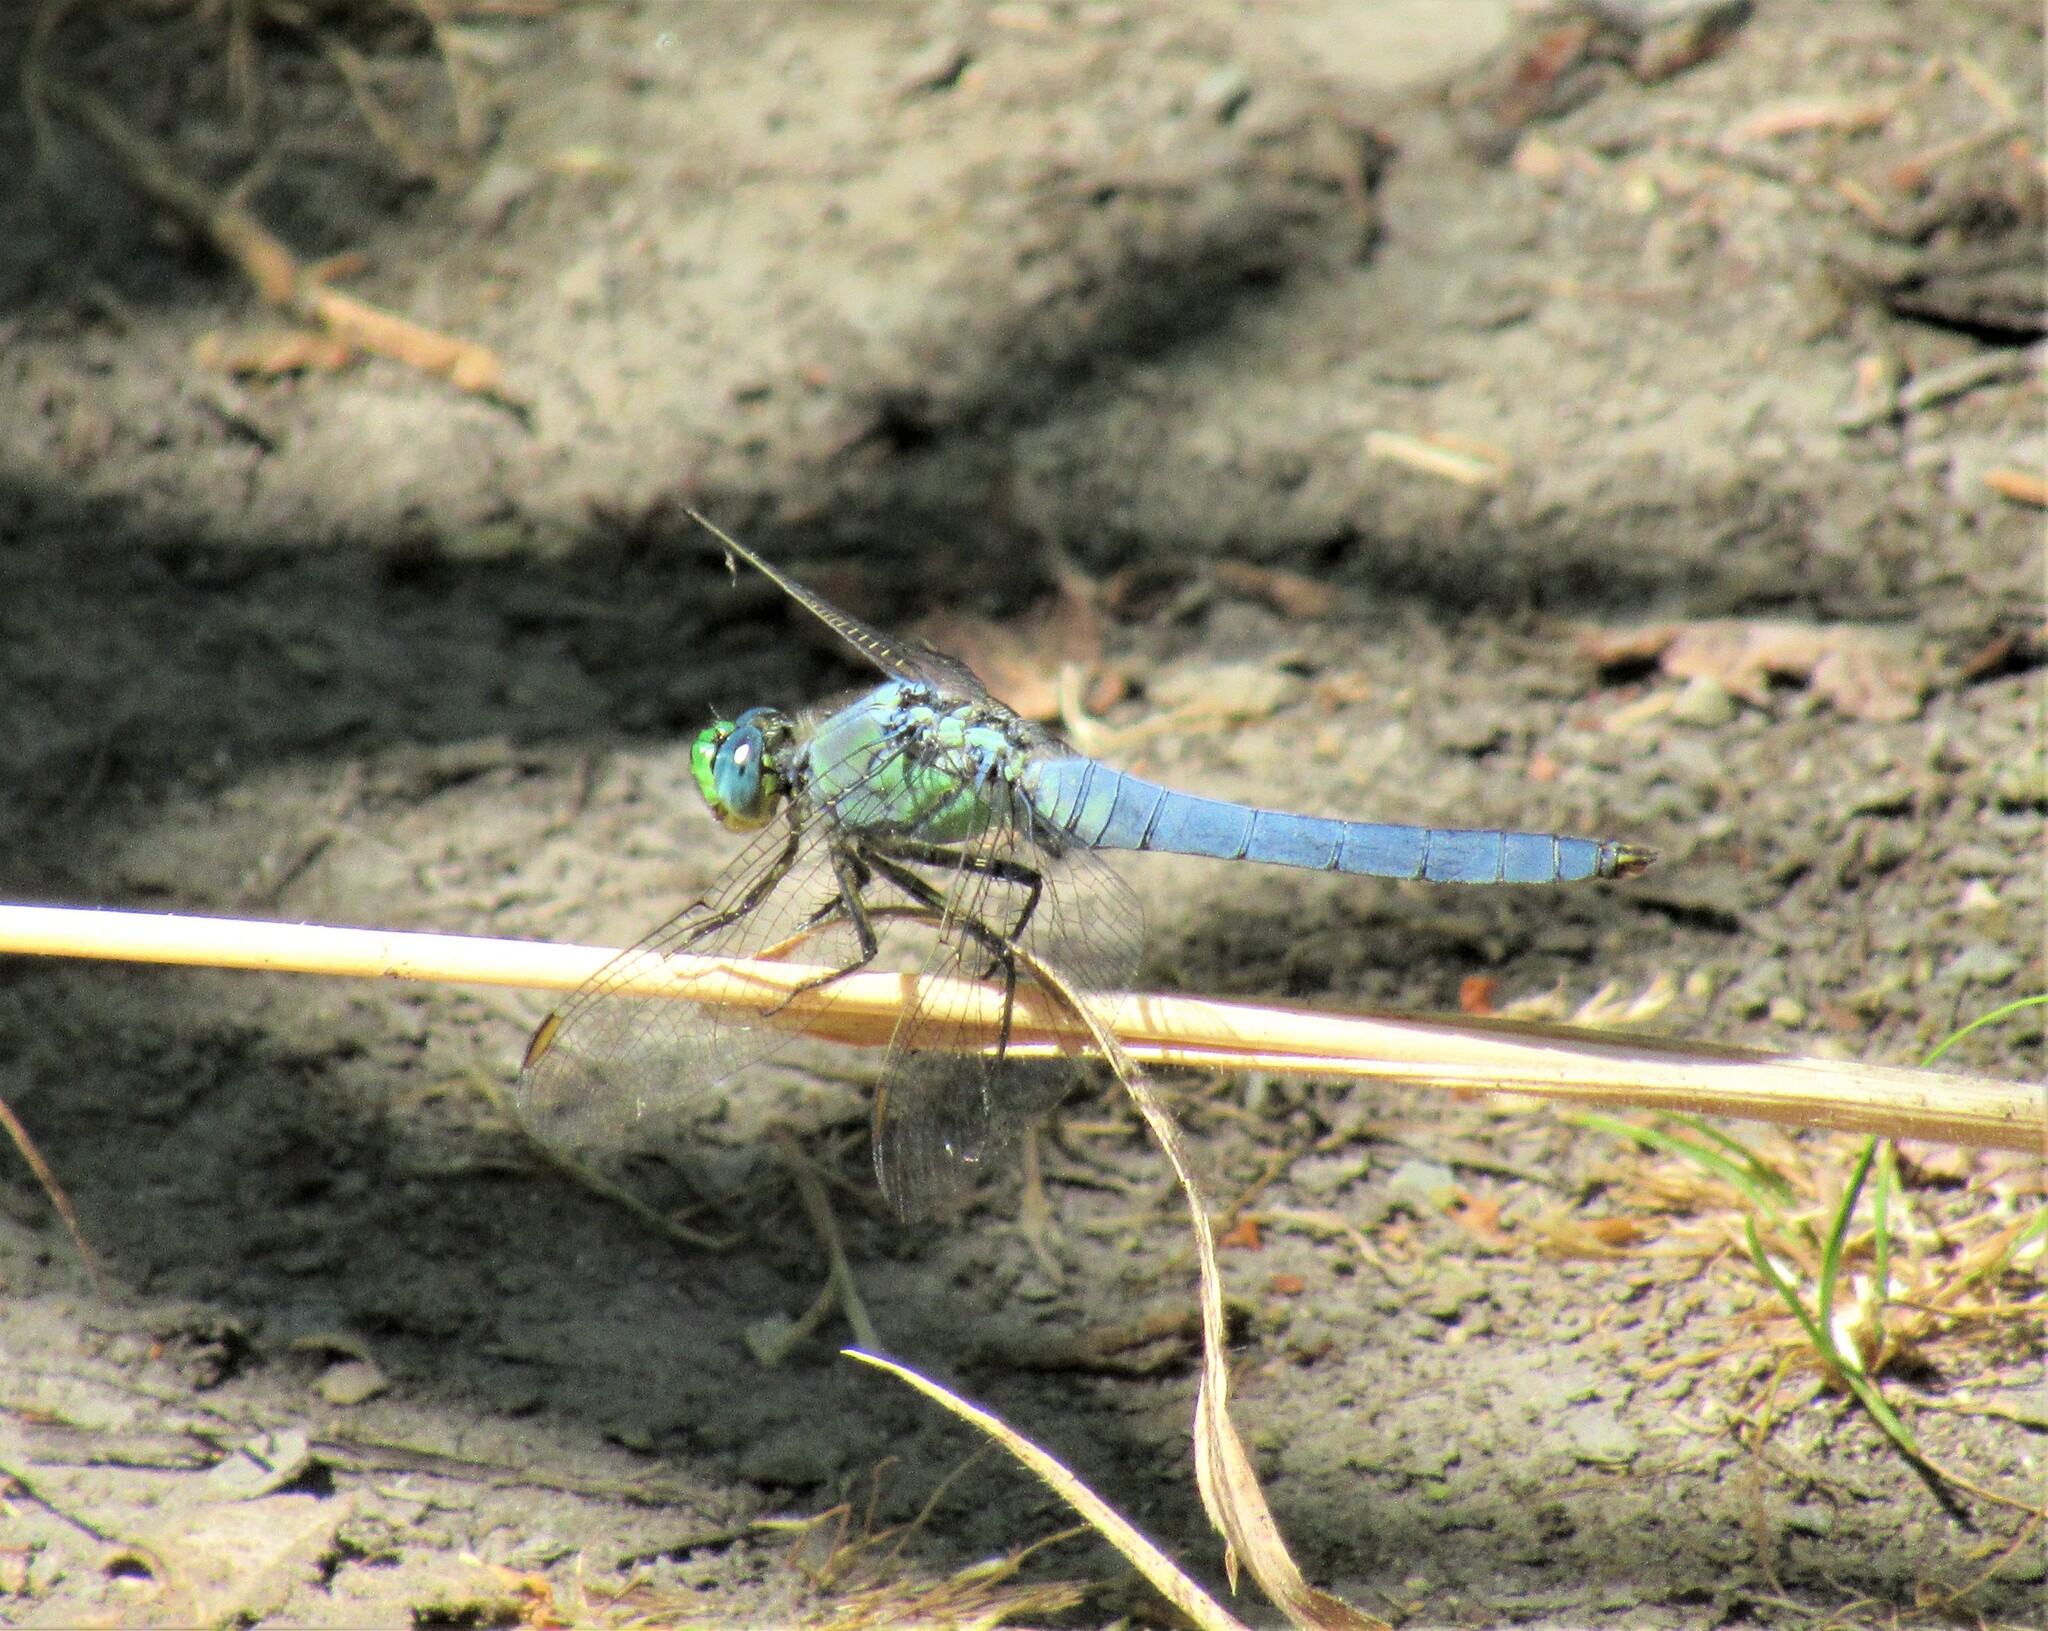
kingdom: Animalia
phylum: Arthropoda
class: Insecta
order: Odonata
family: Libellulidae
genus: Erythemis
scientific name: Erythemis collocata
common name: Western pondhawk
